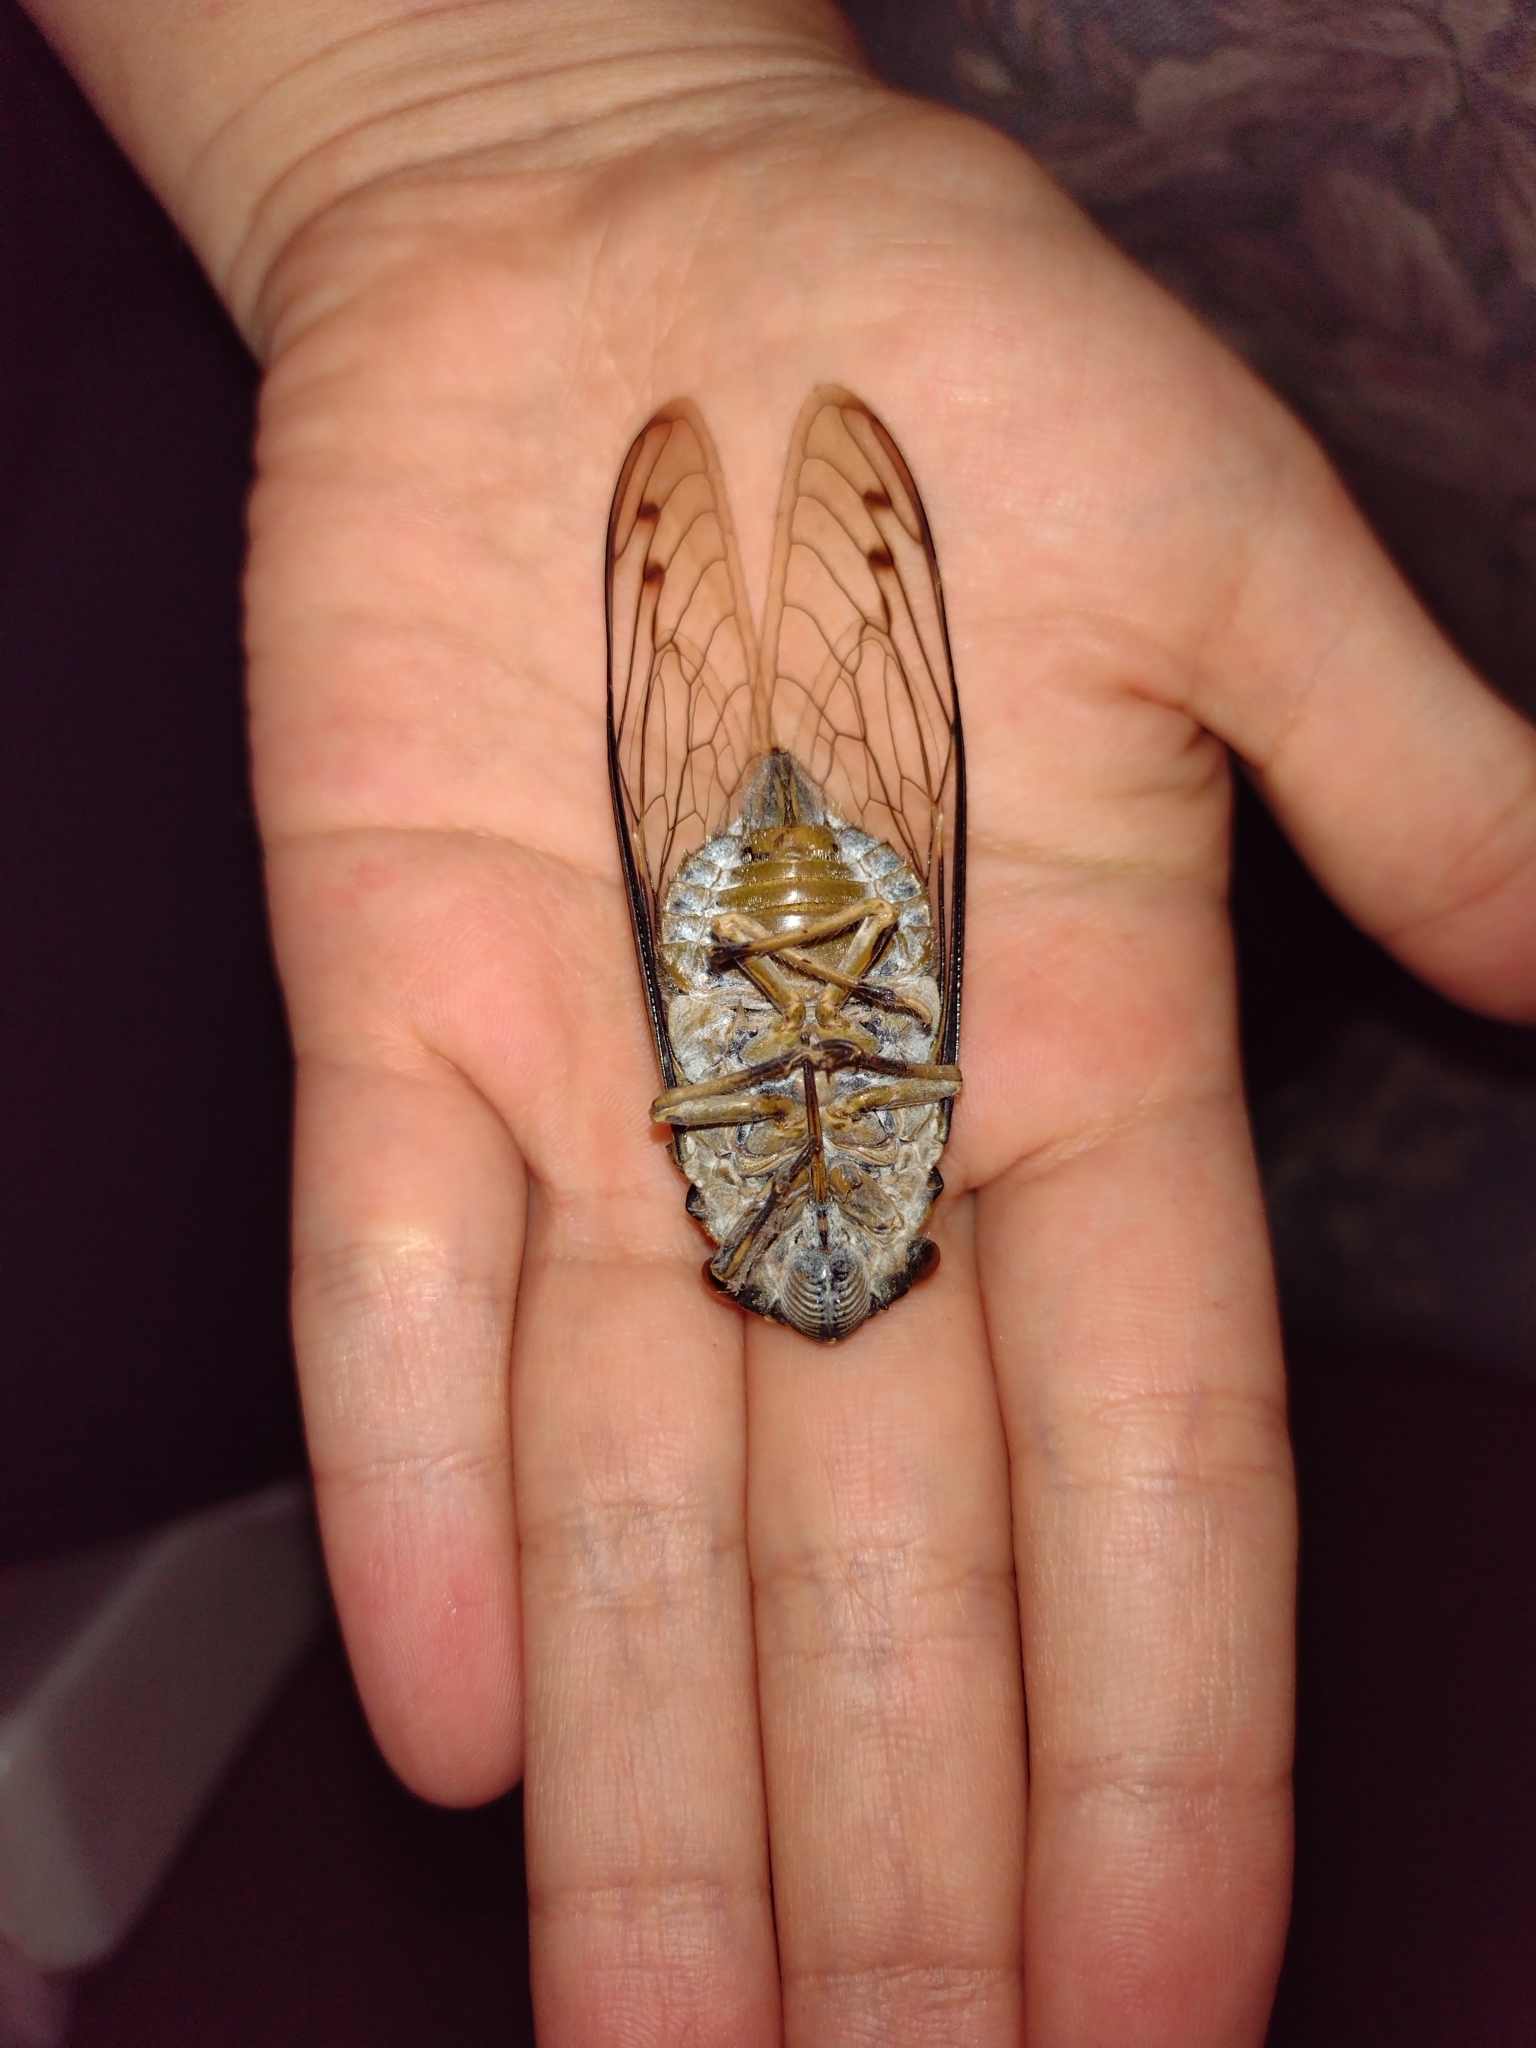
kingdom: Animalia
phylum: Arthropoda
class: Insecta
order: Hemiptera
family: Cicadidae
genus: Quesada
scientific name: Quesada gigas
